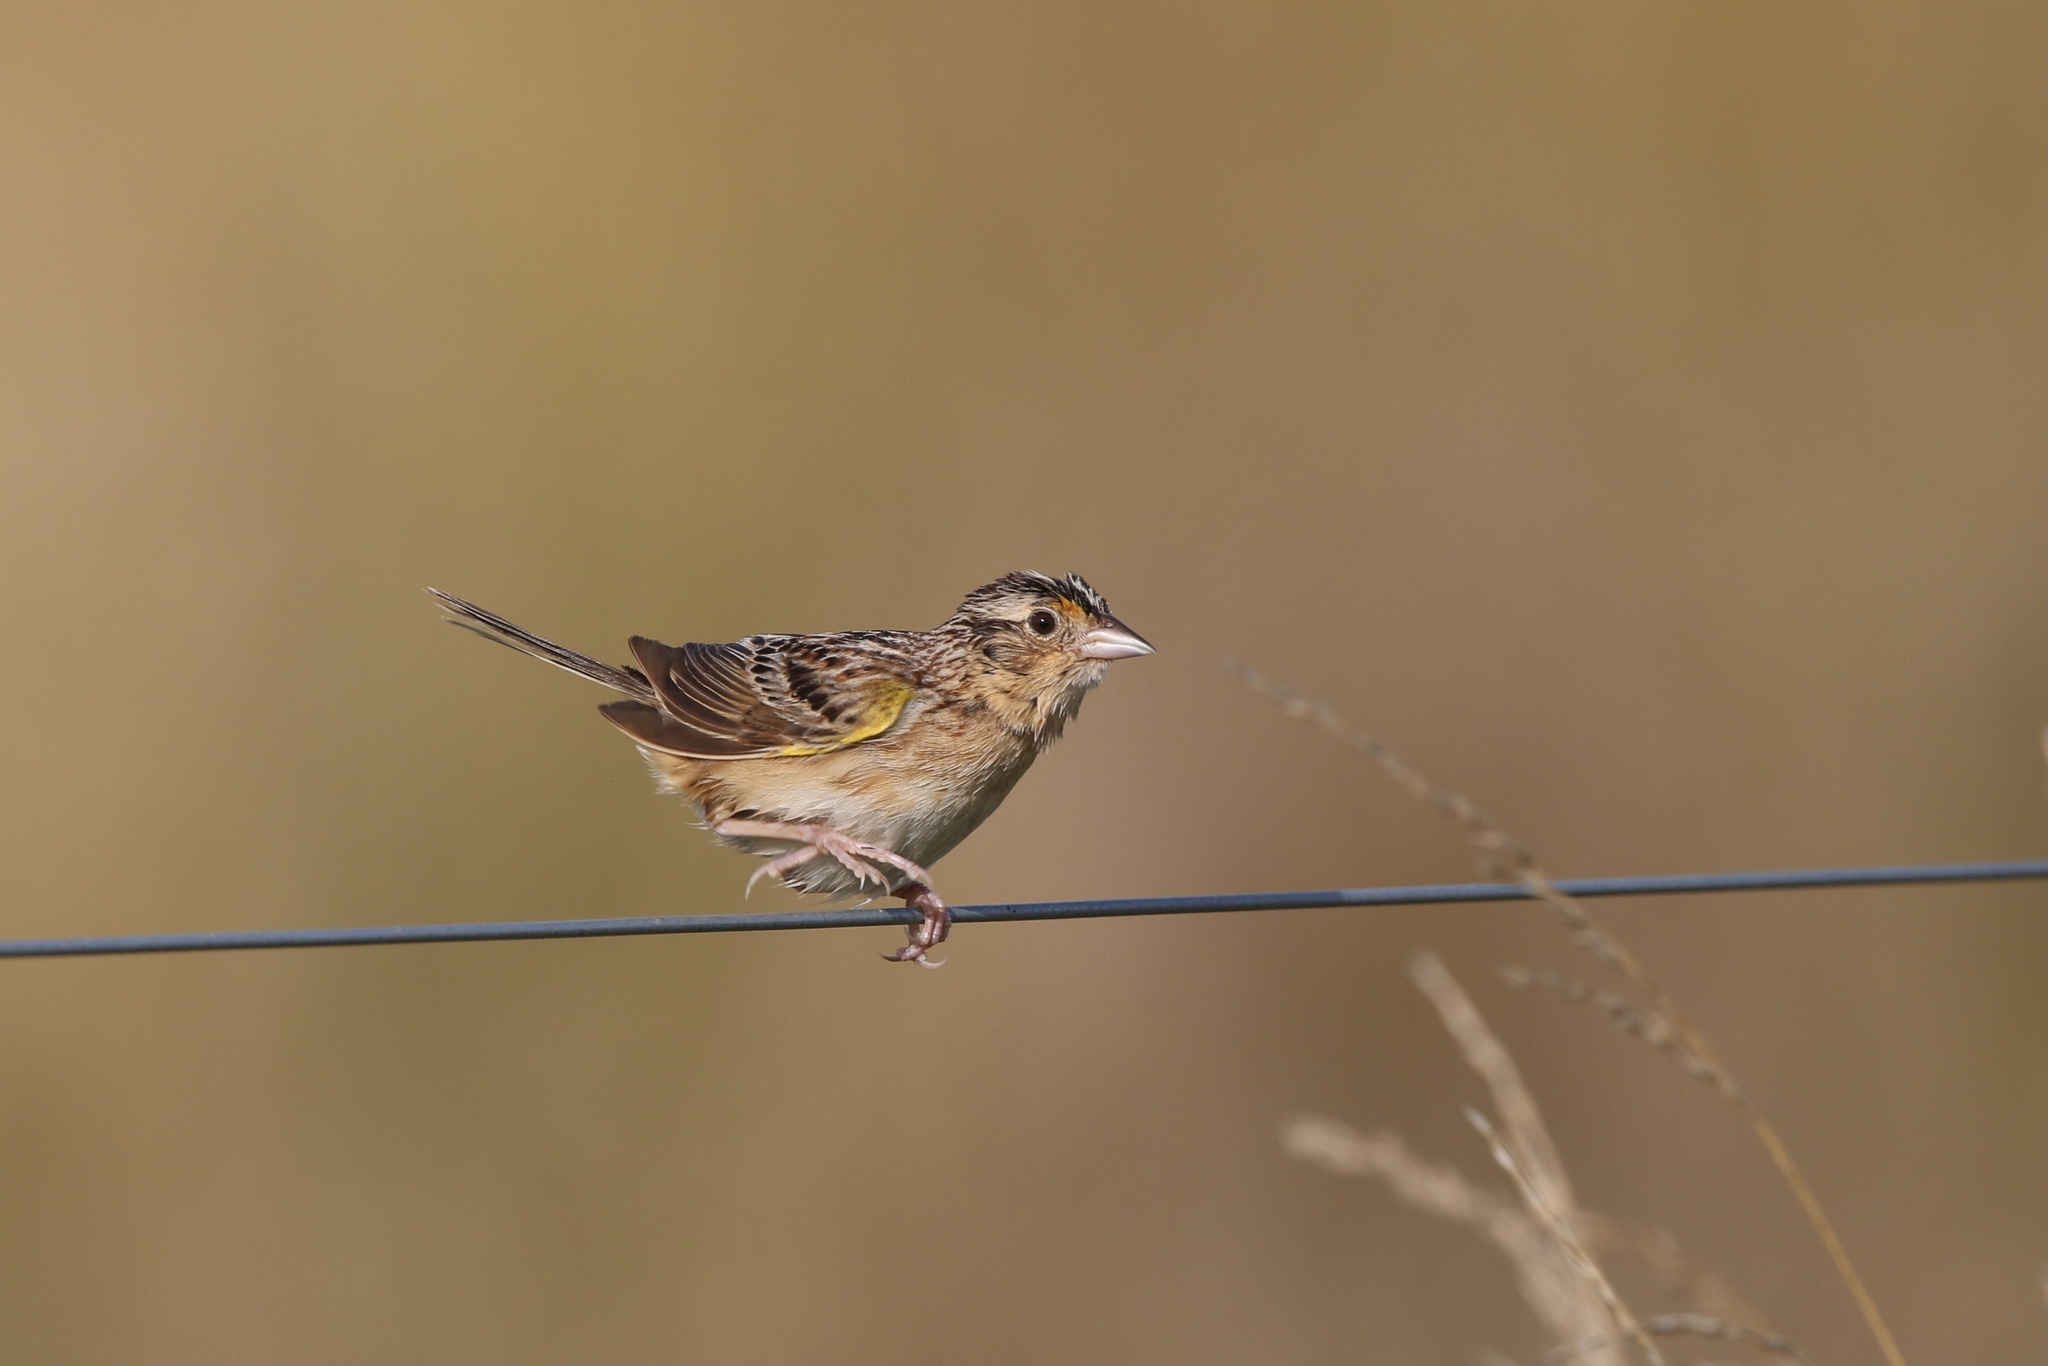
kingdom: Animalia
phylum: Chordata
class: Aves
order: Passeriformes
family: Passerellidae
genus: Ammodramus
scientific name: Ammodramus savannarum
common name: Grasshopper sparrow
